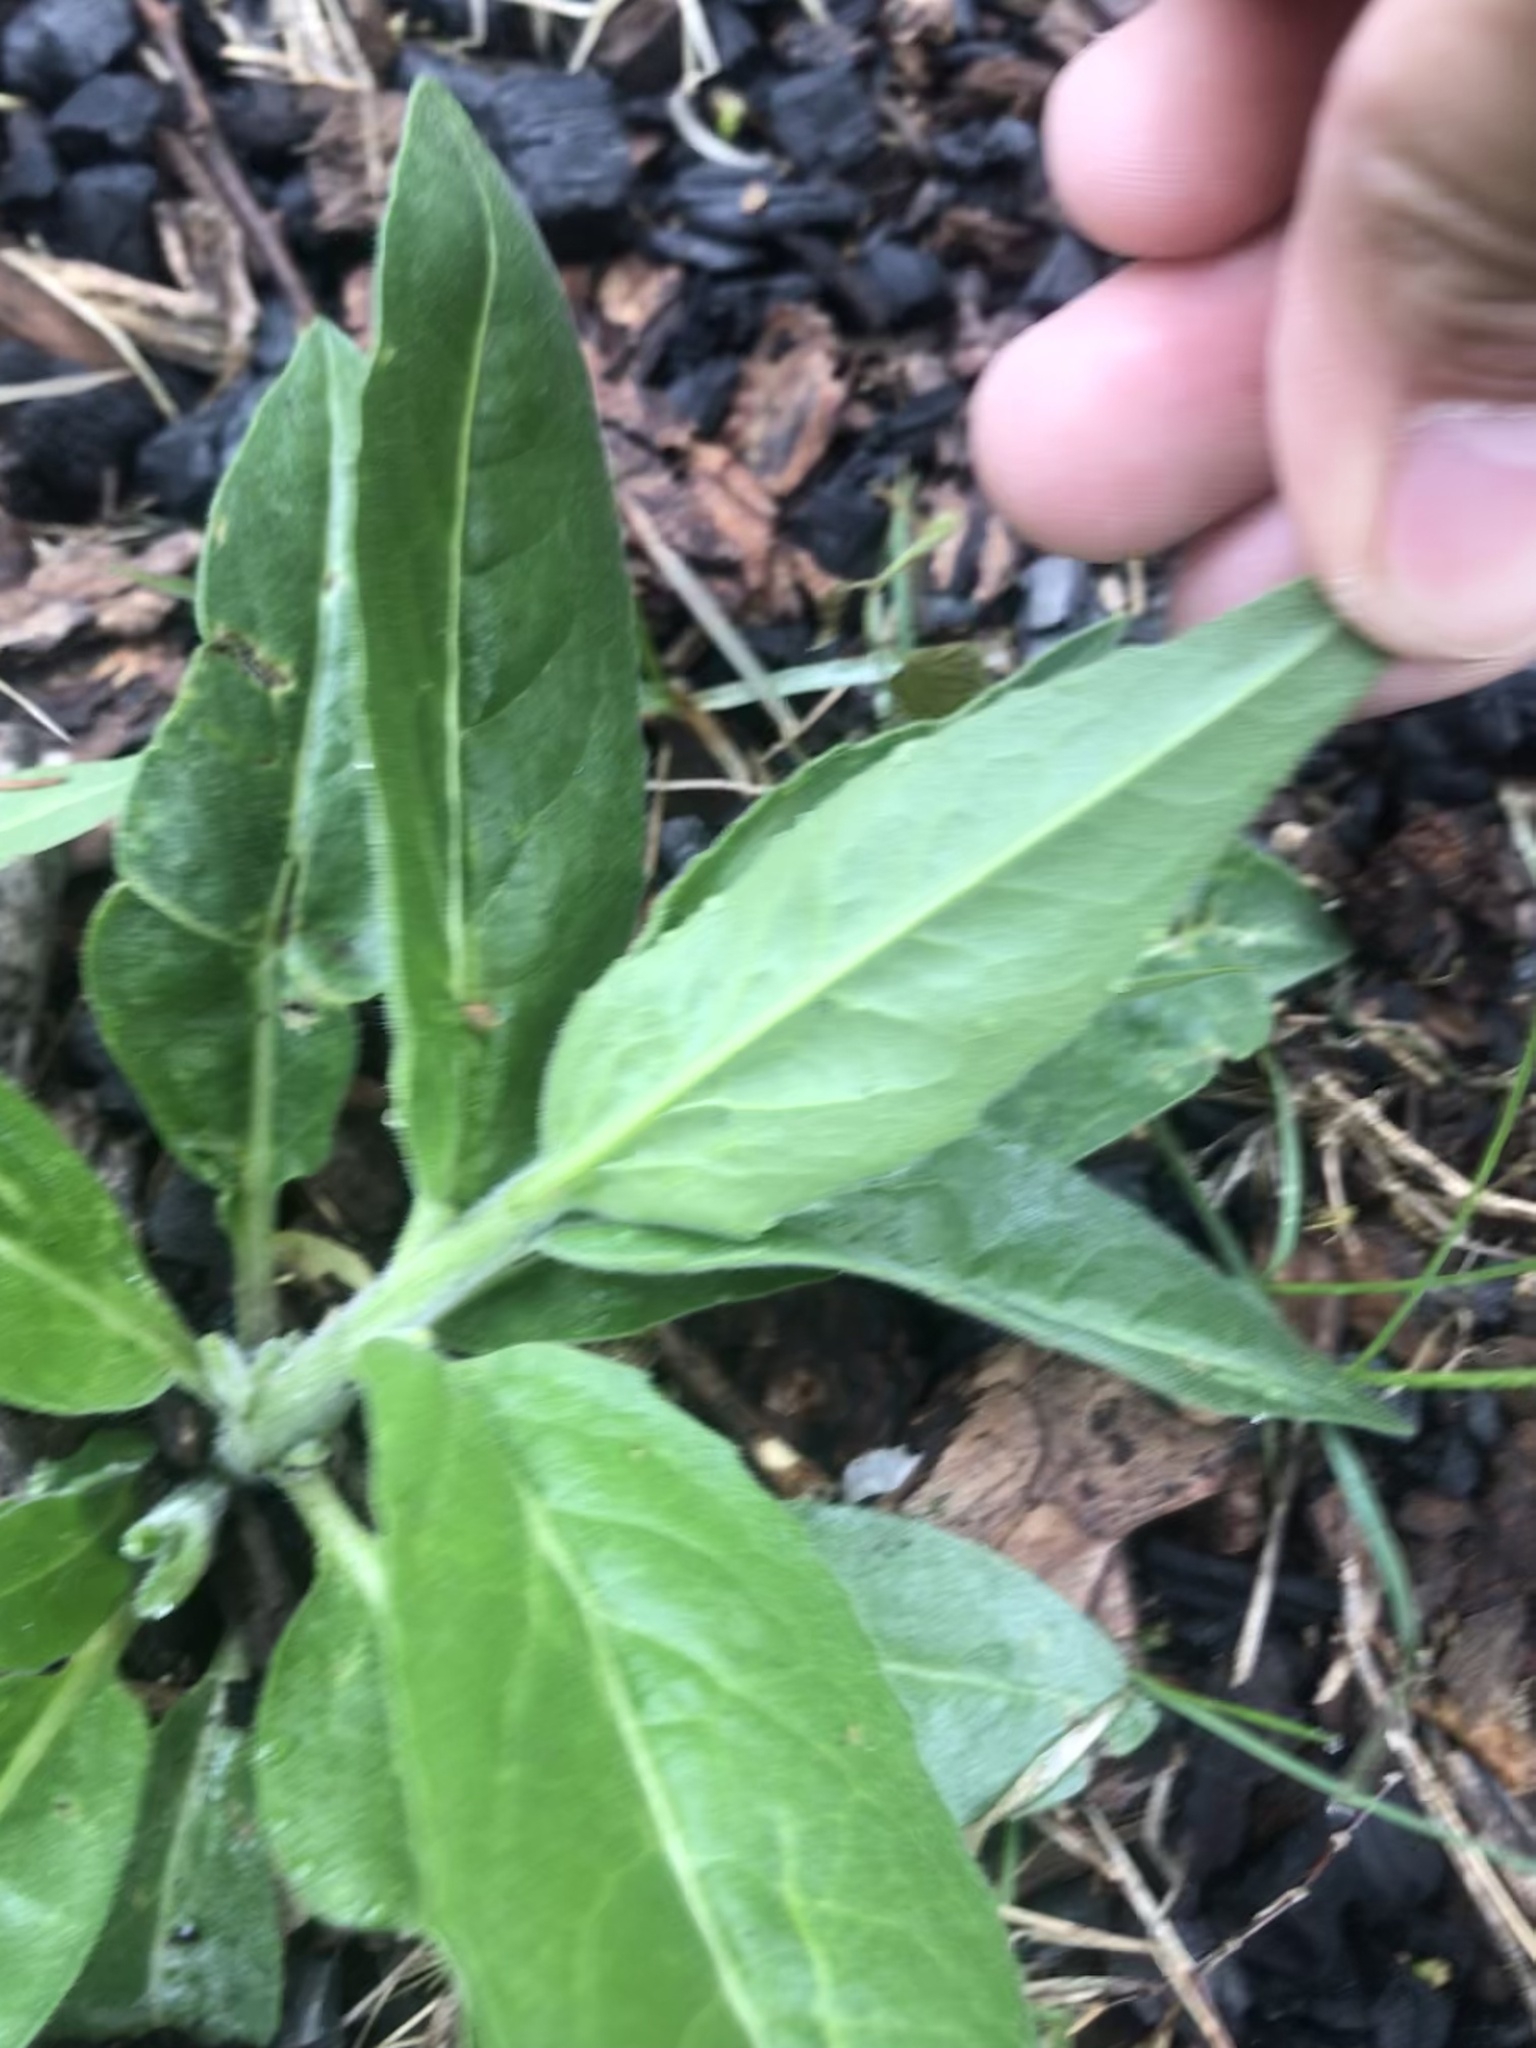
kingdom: Plantae
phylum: Tracheophyta
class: Magnoliopsida
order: Brassicales
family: Brassicaceae
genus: Hesperis
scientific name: Hesperis matronalis
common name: Dame's-violet
